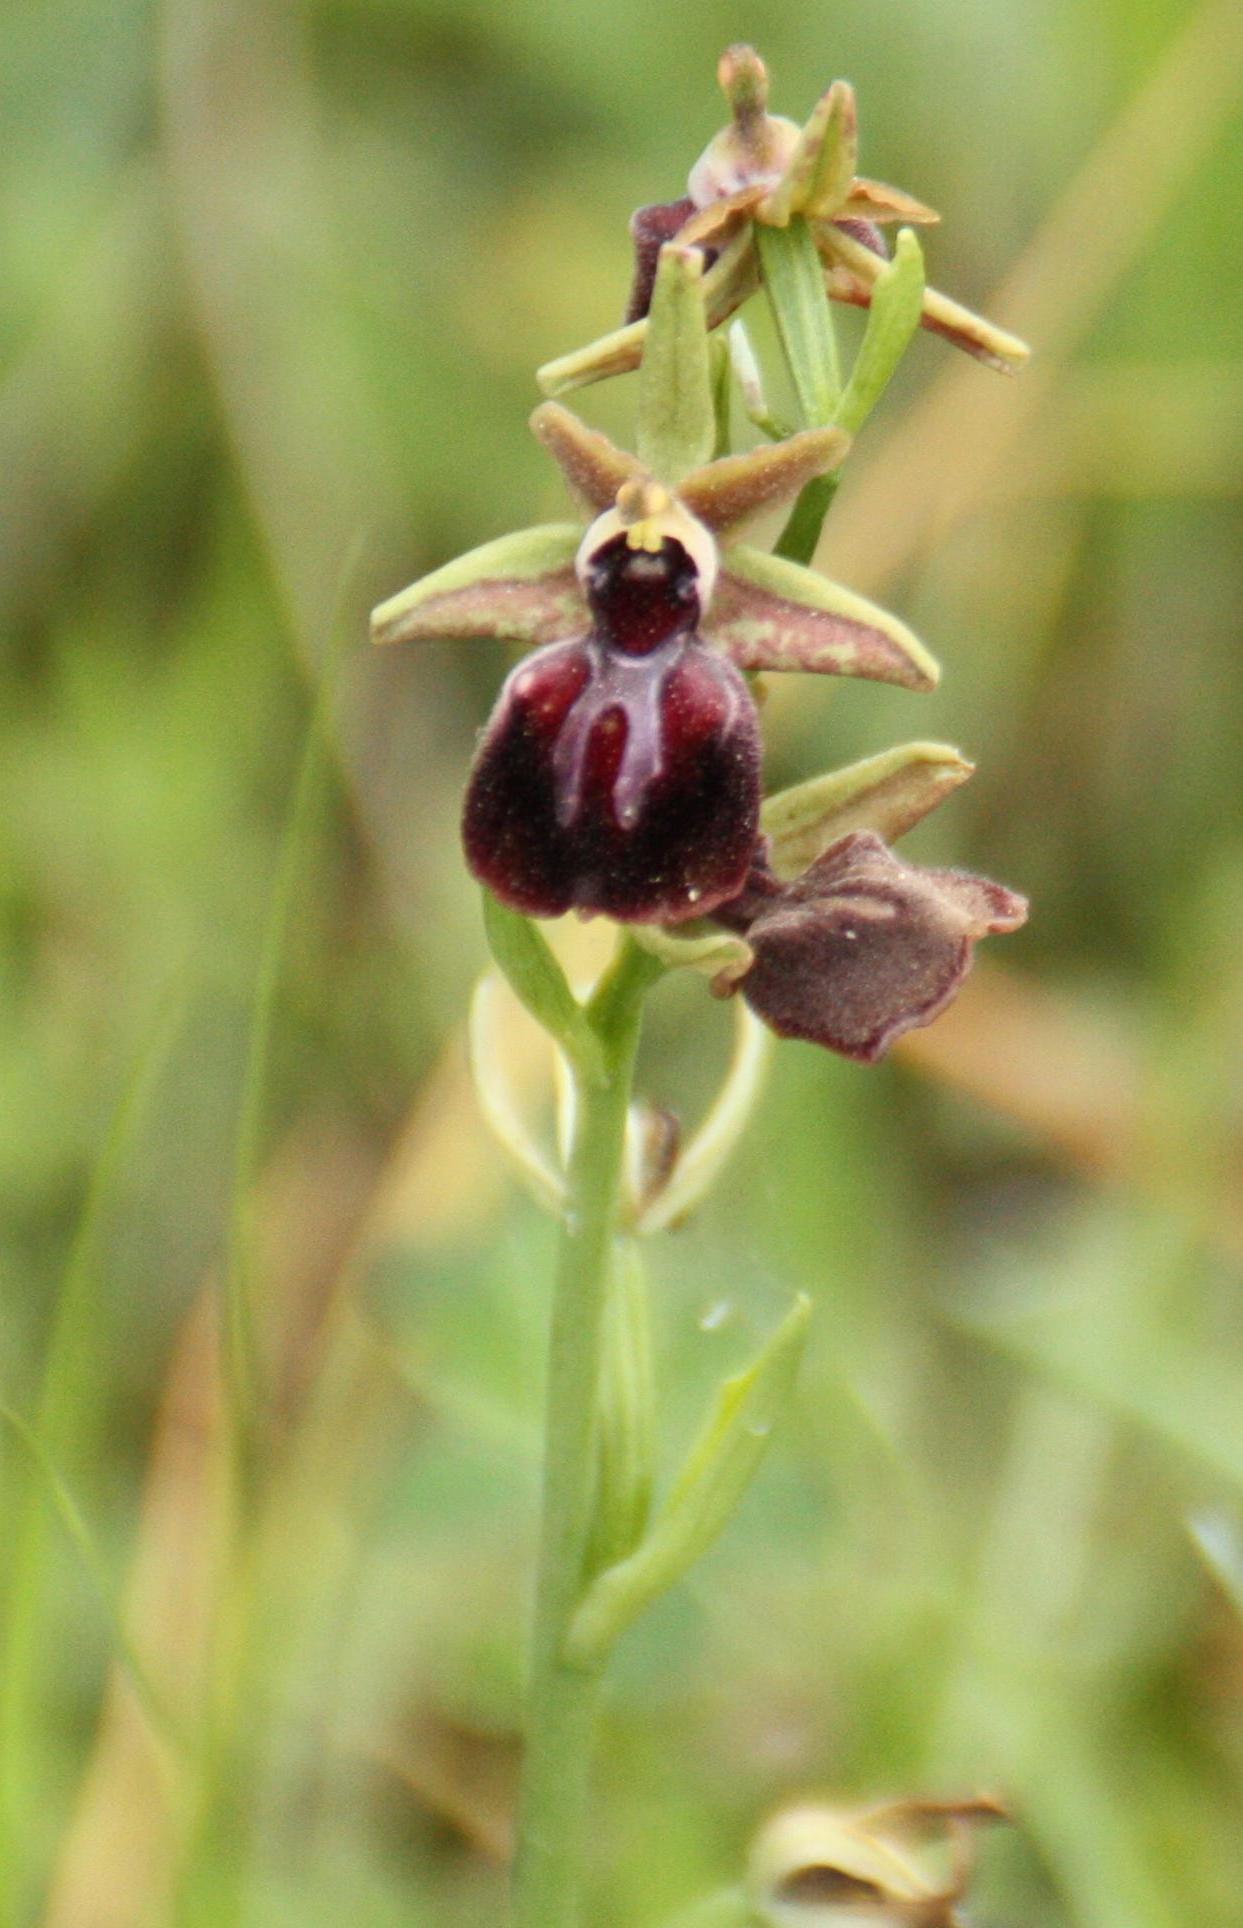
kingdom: Plantae
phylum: Tracheophyta
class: Liliopsida
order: Asparagales
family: Orchidaceae
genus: Ophrys
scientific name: Ophrys sphegodes
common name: Early spider-orchid
